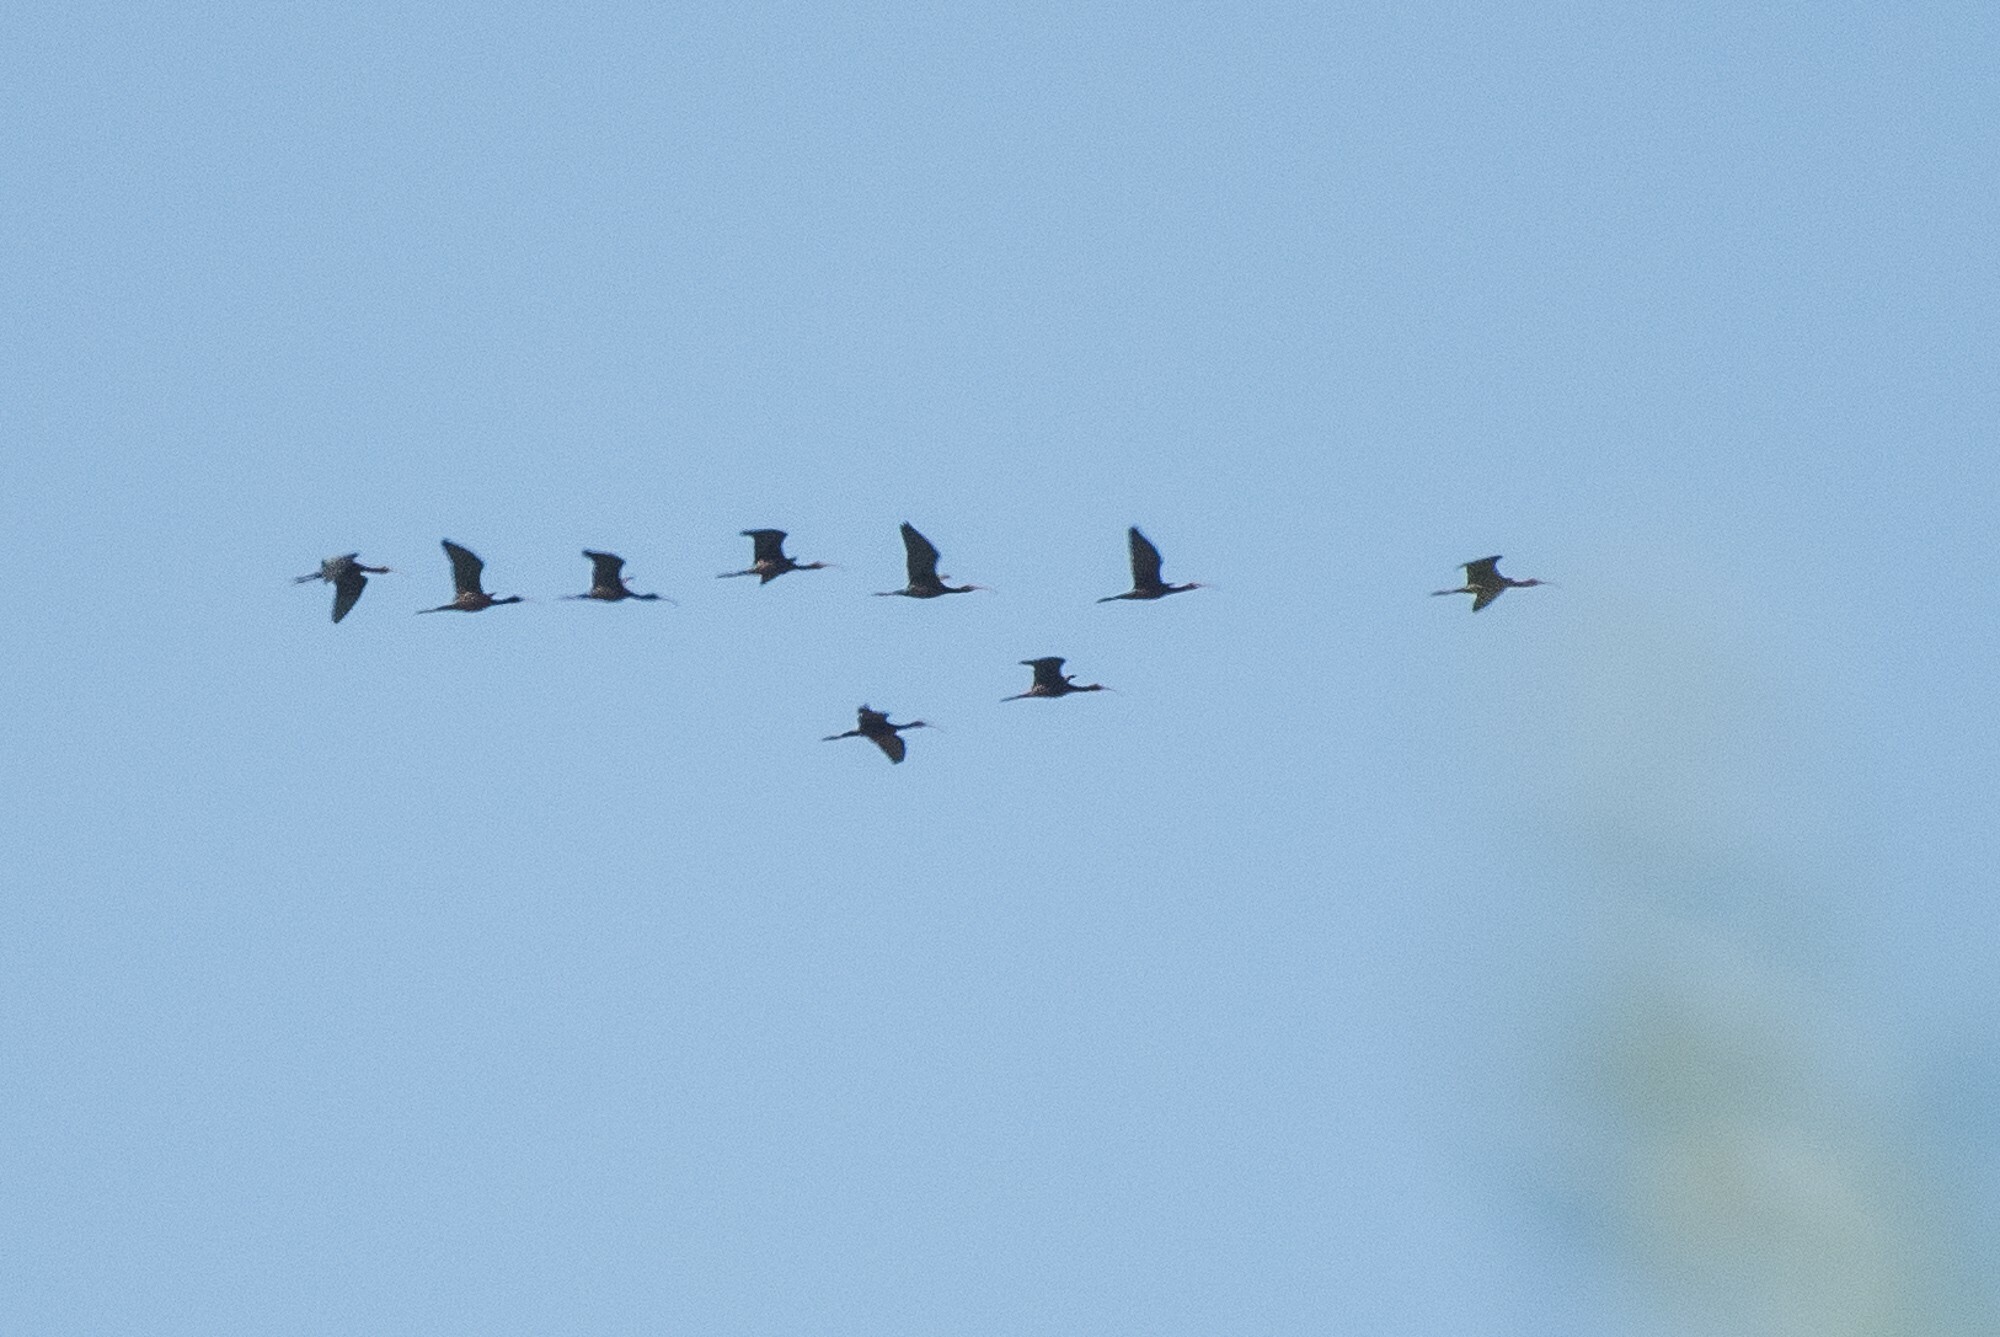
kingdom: Animalia
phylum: Chordata
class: Aves
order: Pelecaniformes
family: Threskiornithidae
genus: Plegadis
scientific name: Plegadis chihi
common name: White-faced ibis
